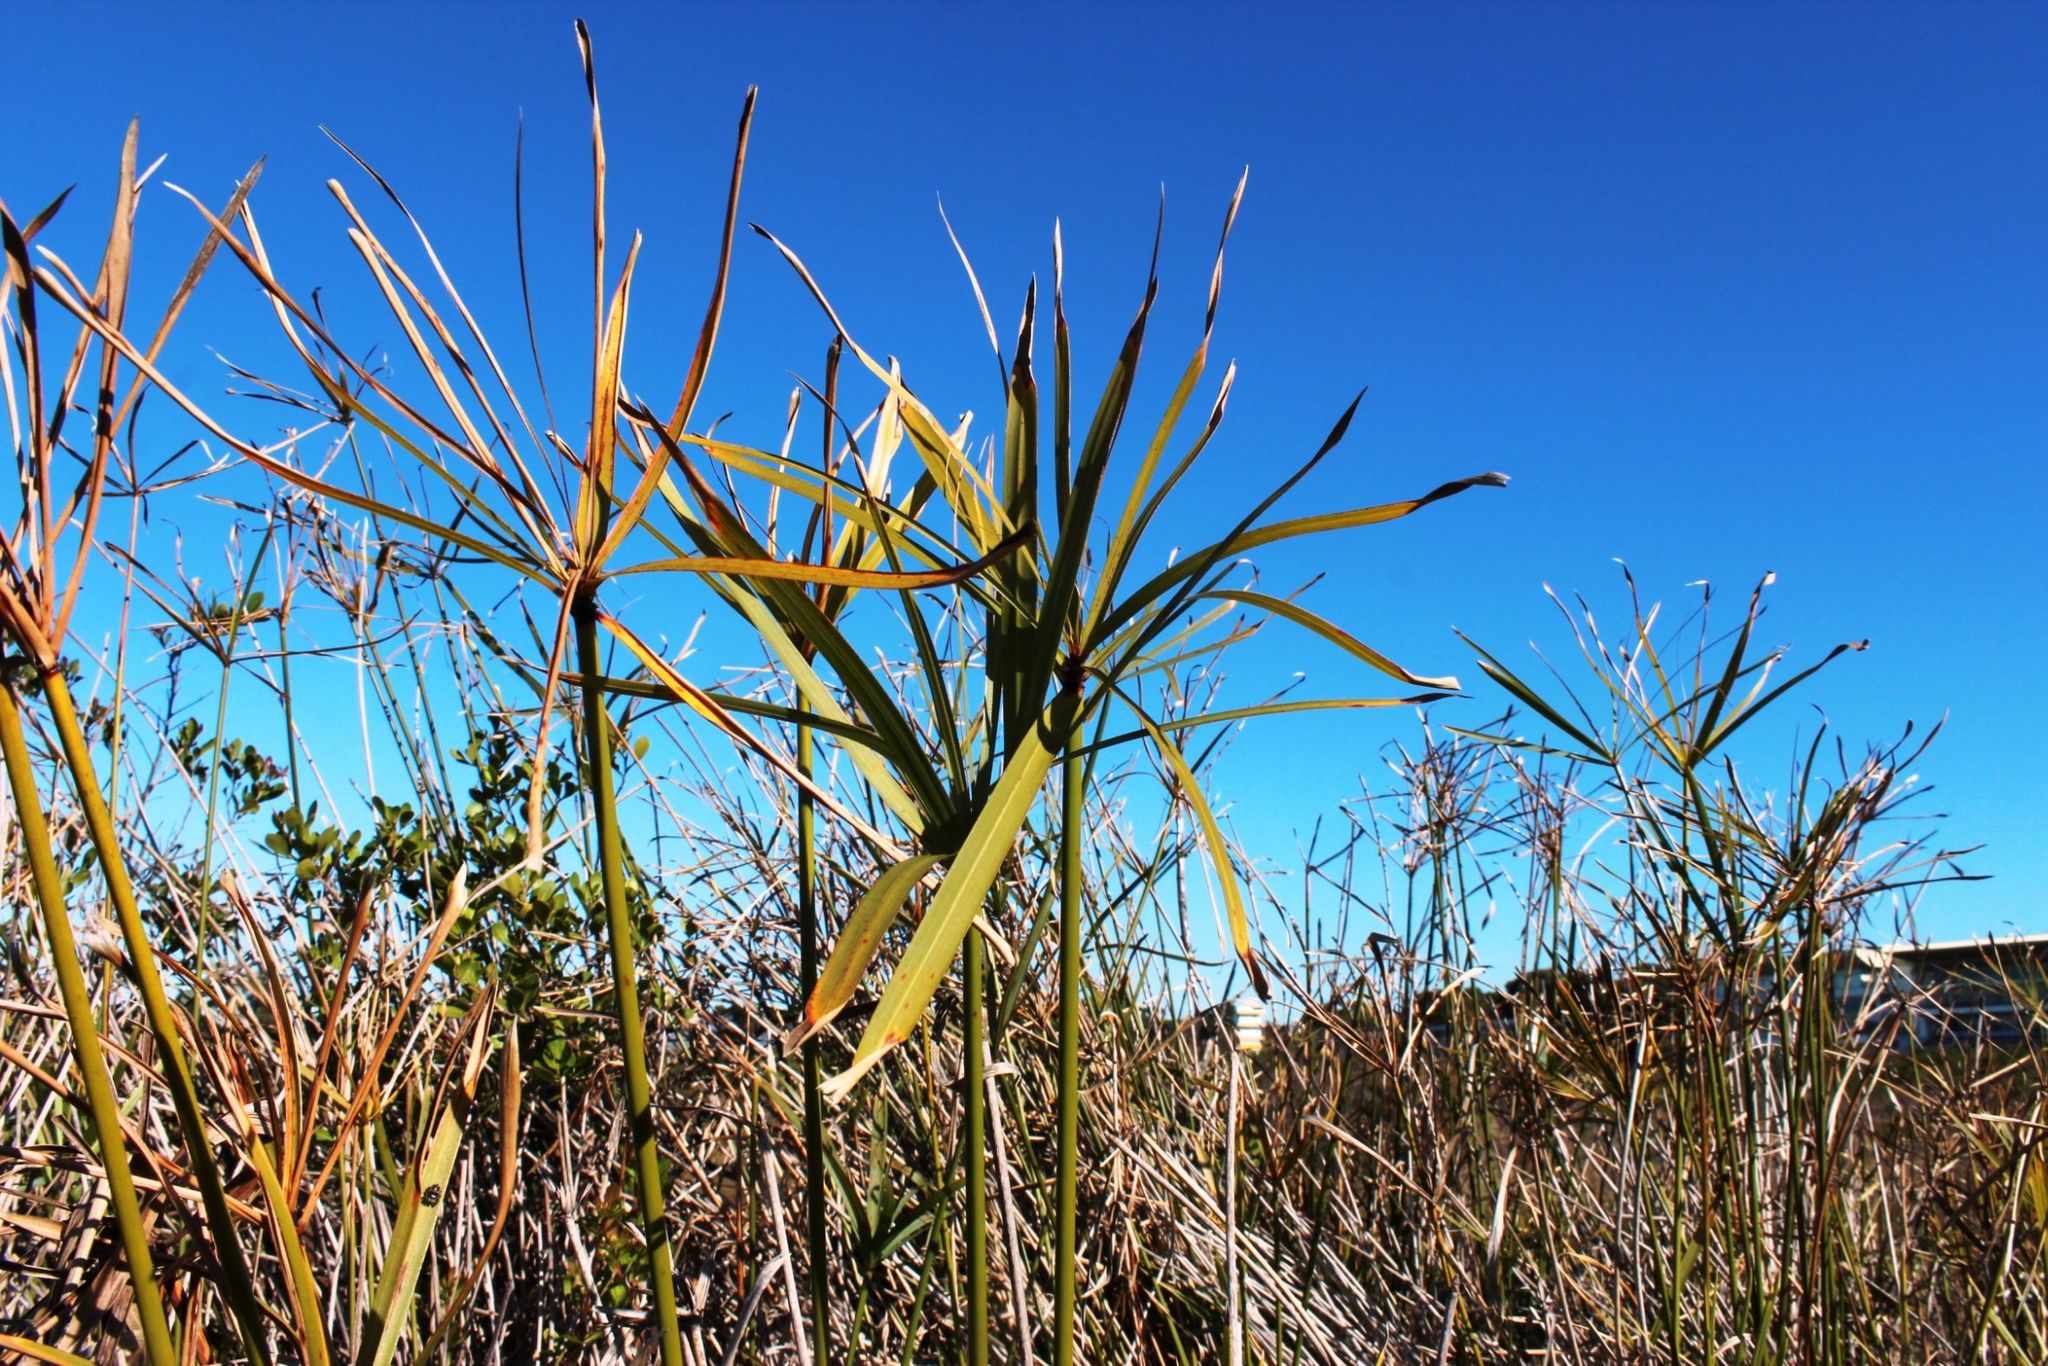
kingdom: Plantae
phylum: Tracheophyta
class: Liliopsida
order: Poales
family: Cyperaceae
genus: Cyperus
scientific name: Cyperus textilis
